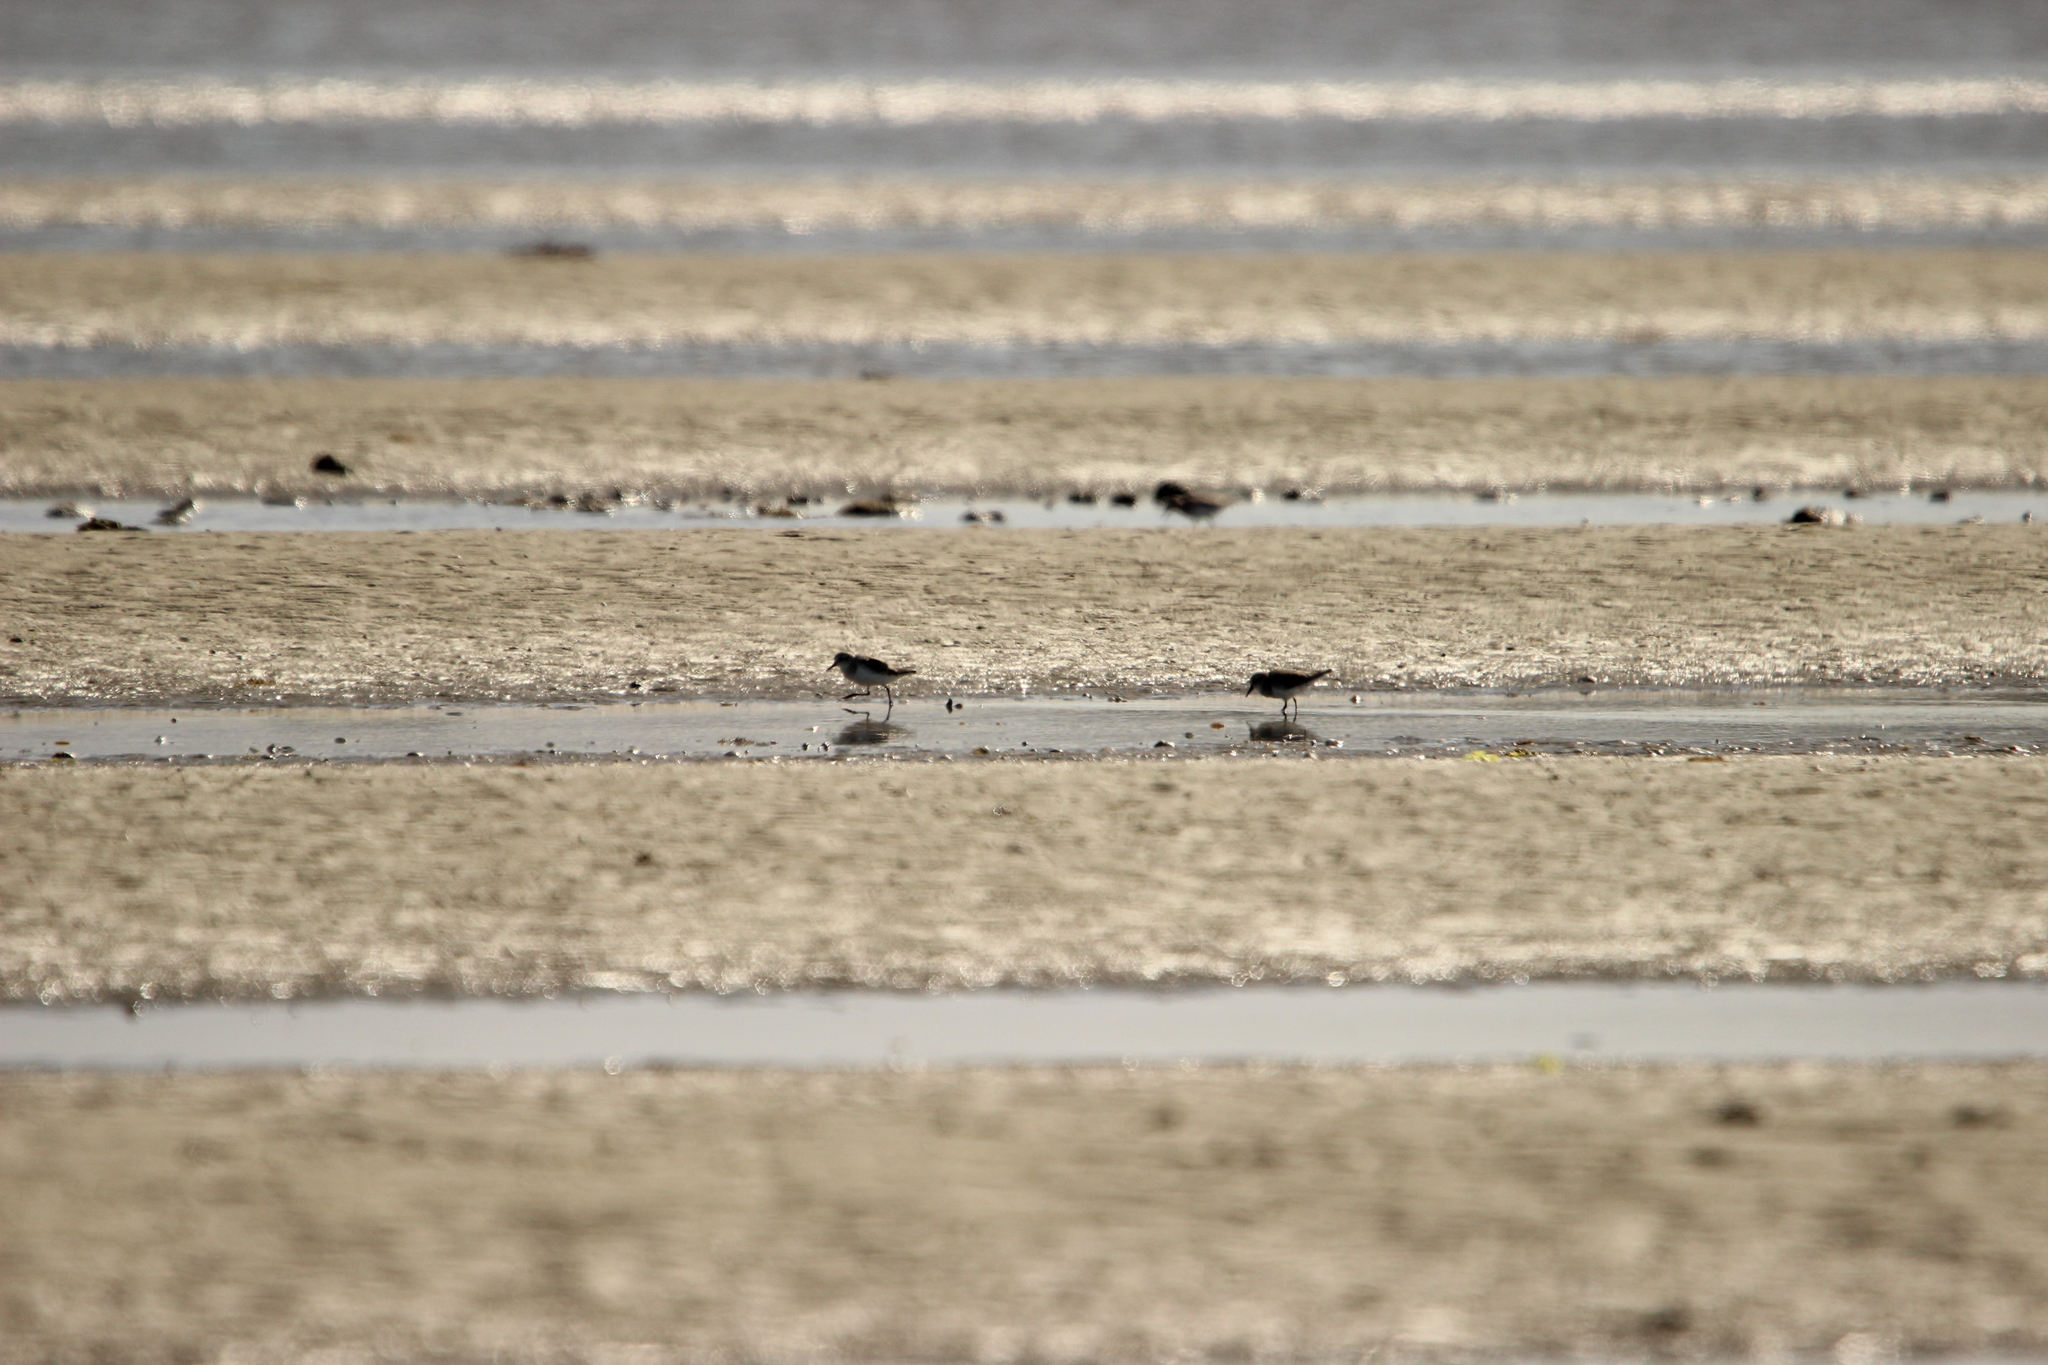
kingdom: Animalia
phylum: Chordata
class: Aves
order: Charadriiformes
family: Scolopacidae
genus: Calidris
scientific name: Calidris ruficollis
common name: Red-necked stint
